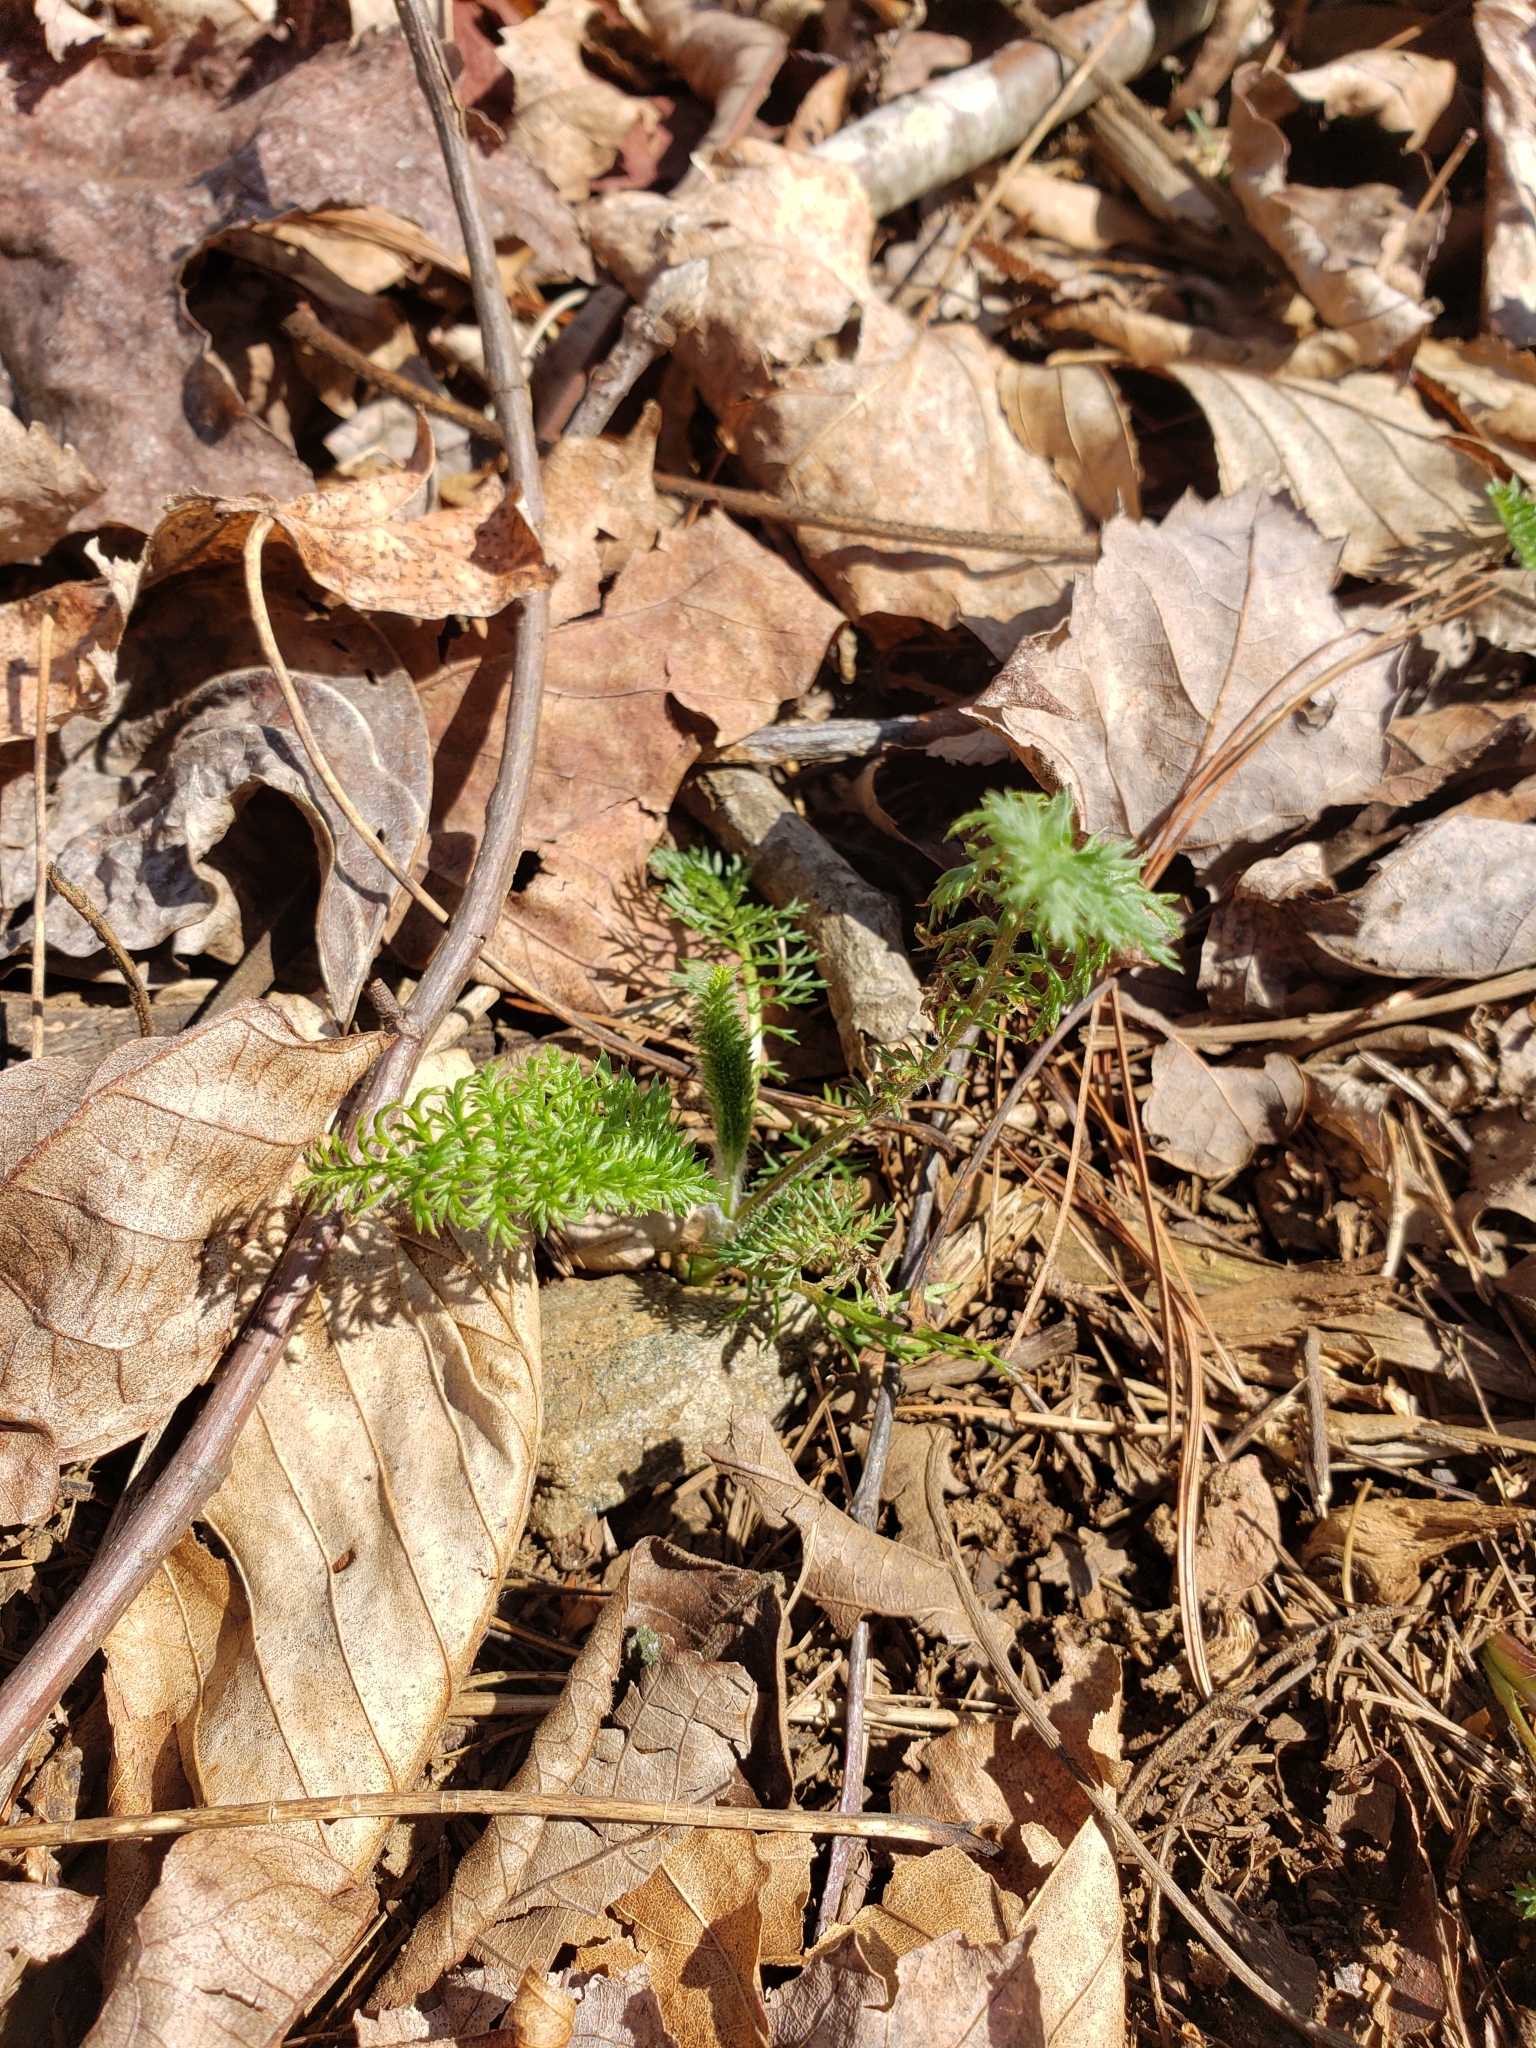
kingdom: Plantae
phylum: Tracheophyta
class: Magnoliopsida
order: Asterales
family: Asteraceae
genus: Achillea
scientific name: Achillea millefolium
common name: Yarrow
